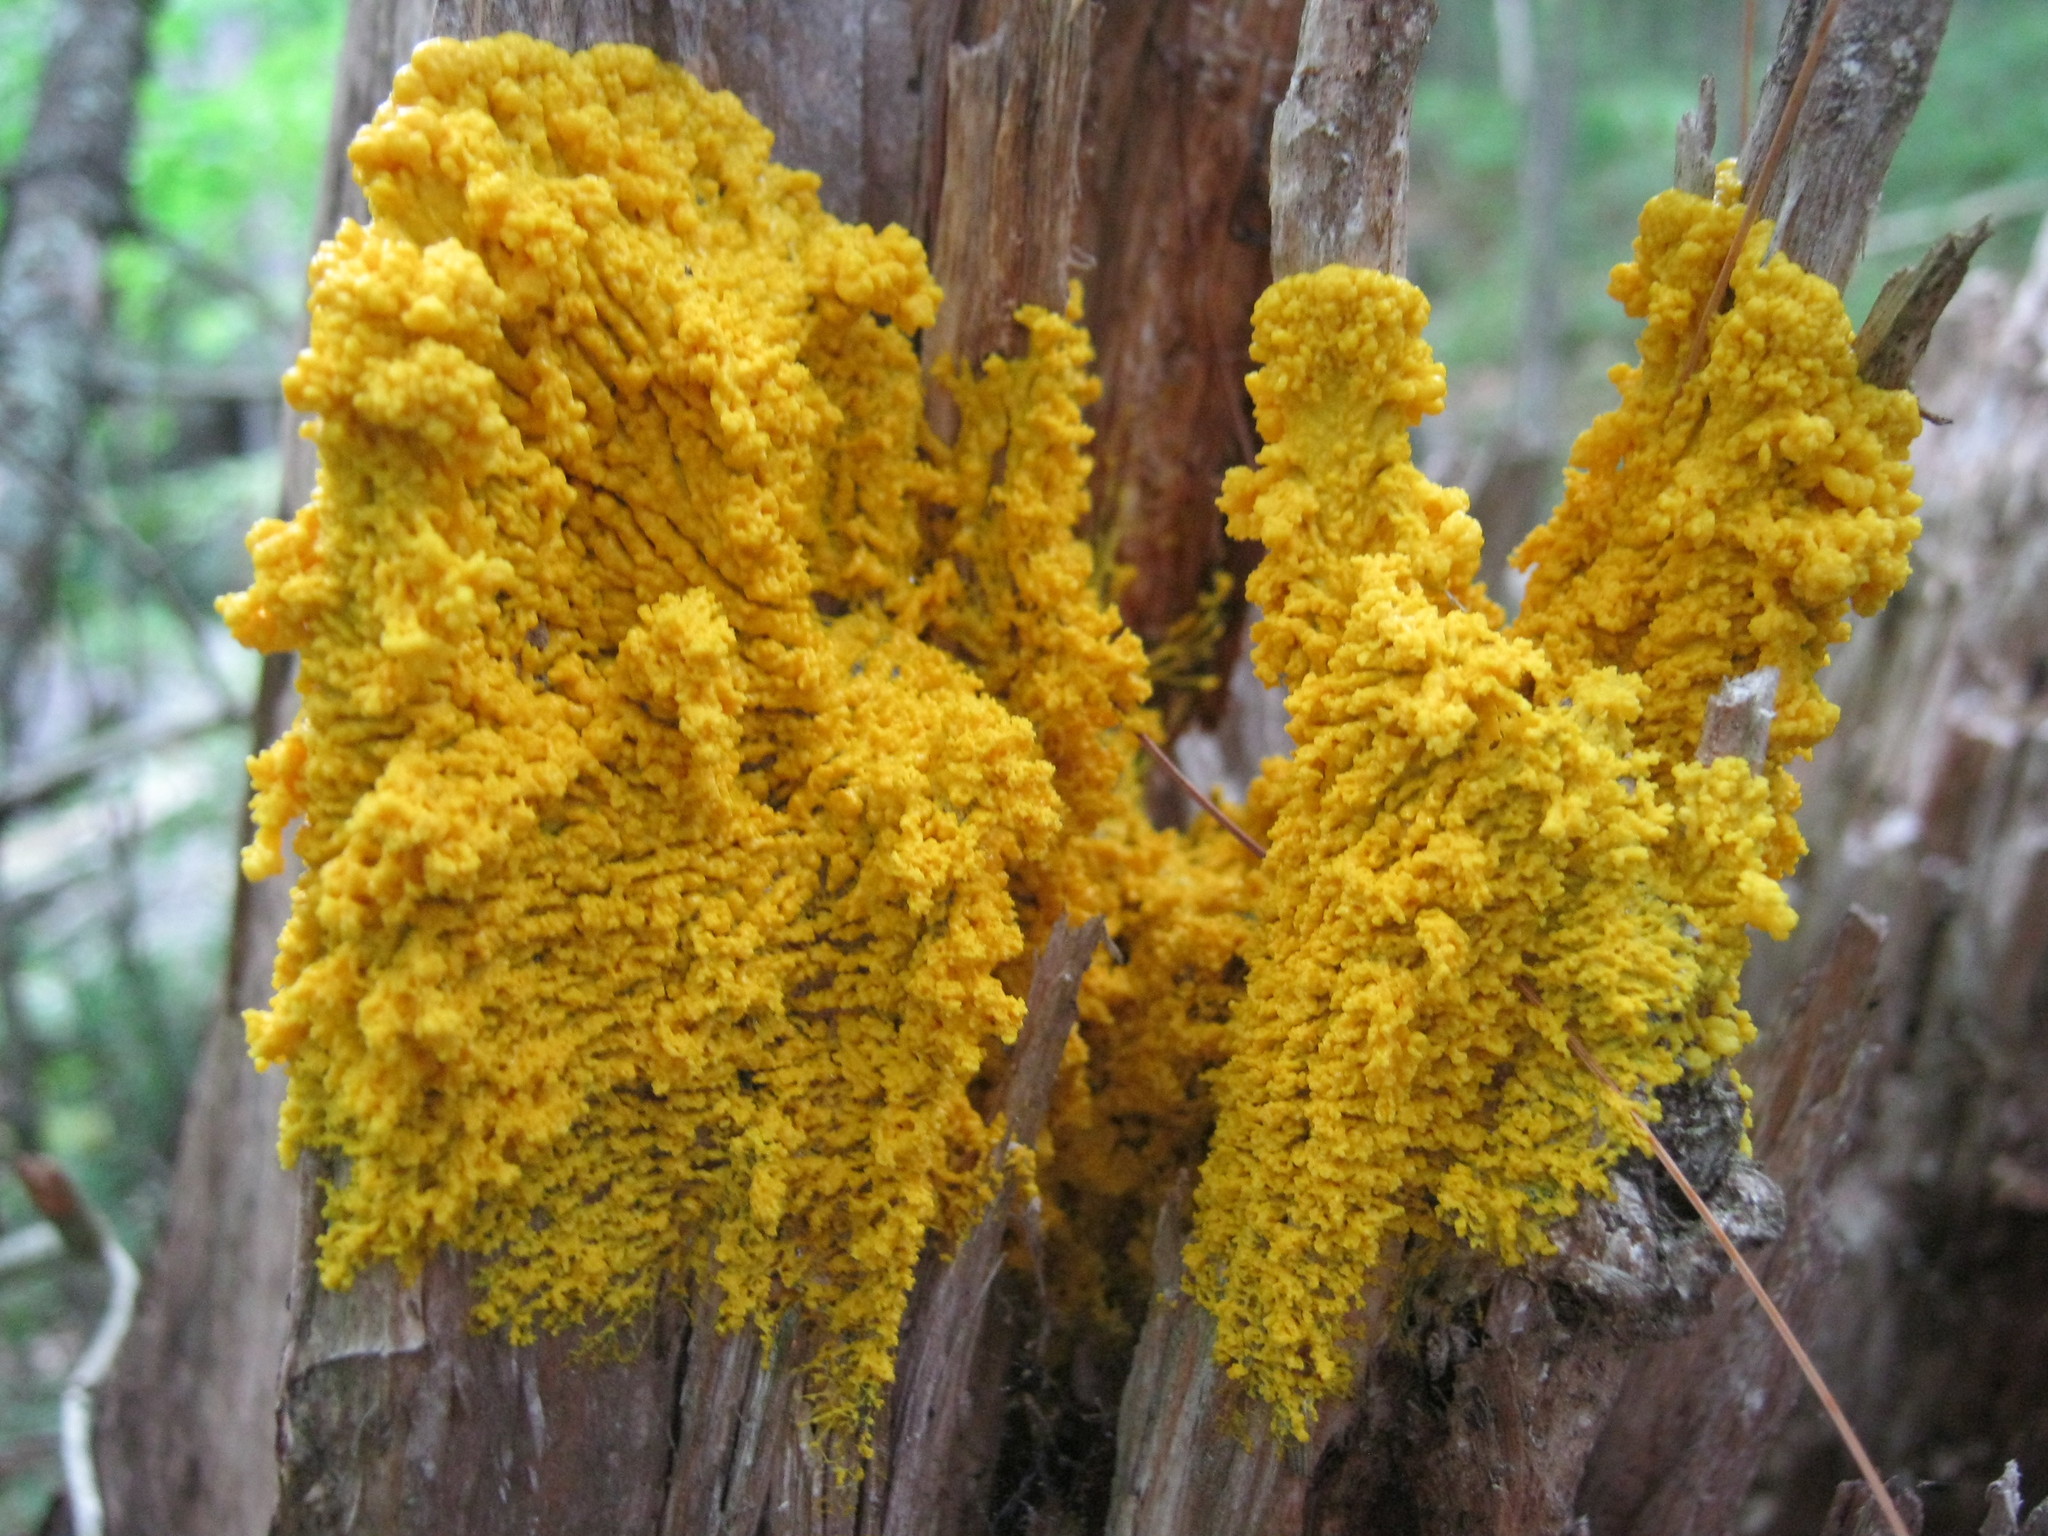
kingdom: Protozoa
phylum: Mycetozoa
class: Myxomycetes
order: Physarales
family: Physaraceae
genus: Fuligo
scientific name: Fuligo septica
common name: Dog vomit slime mold
